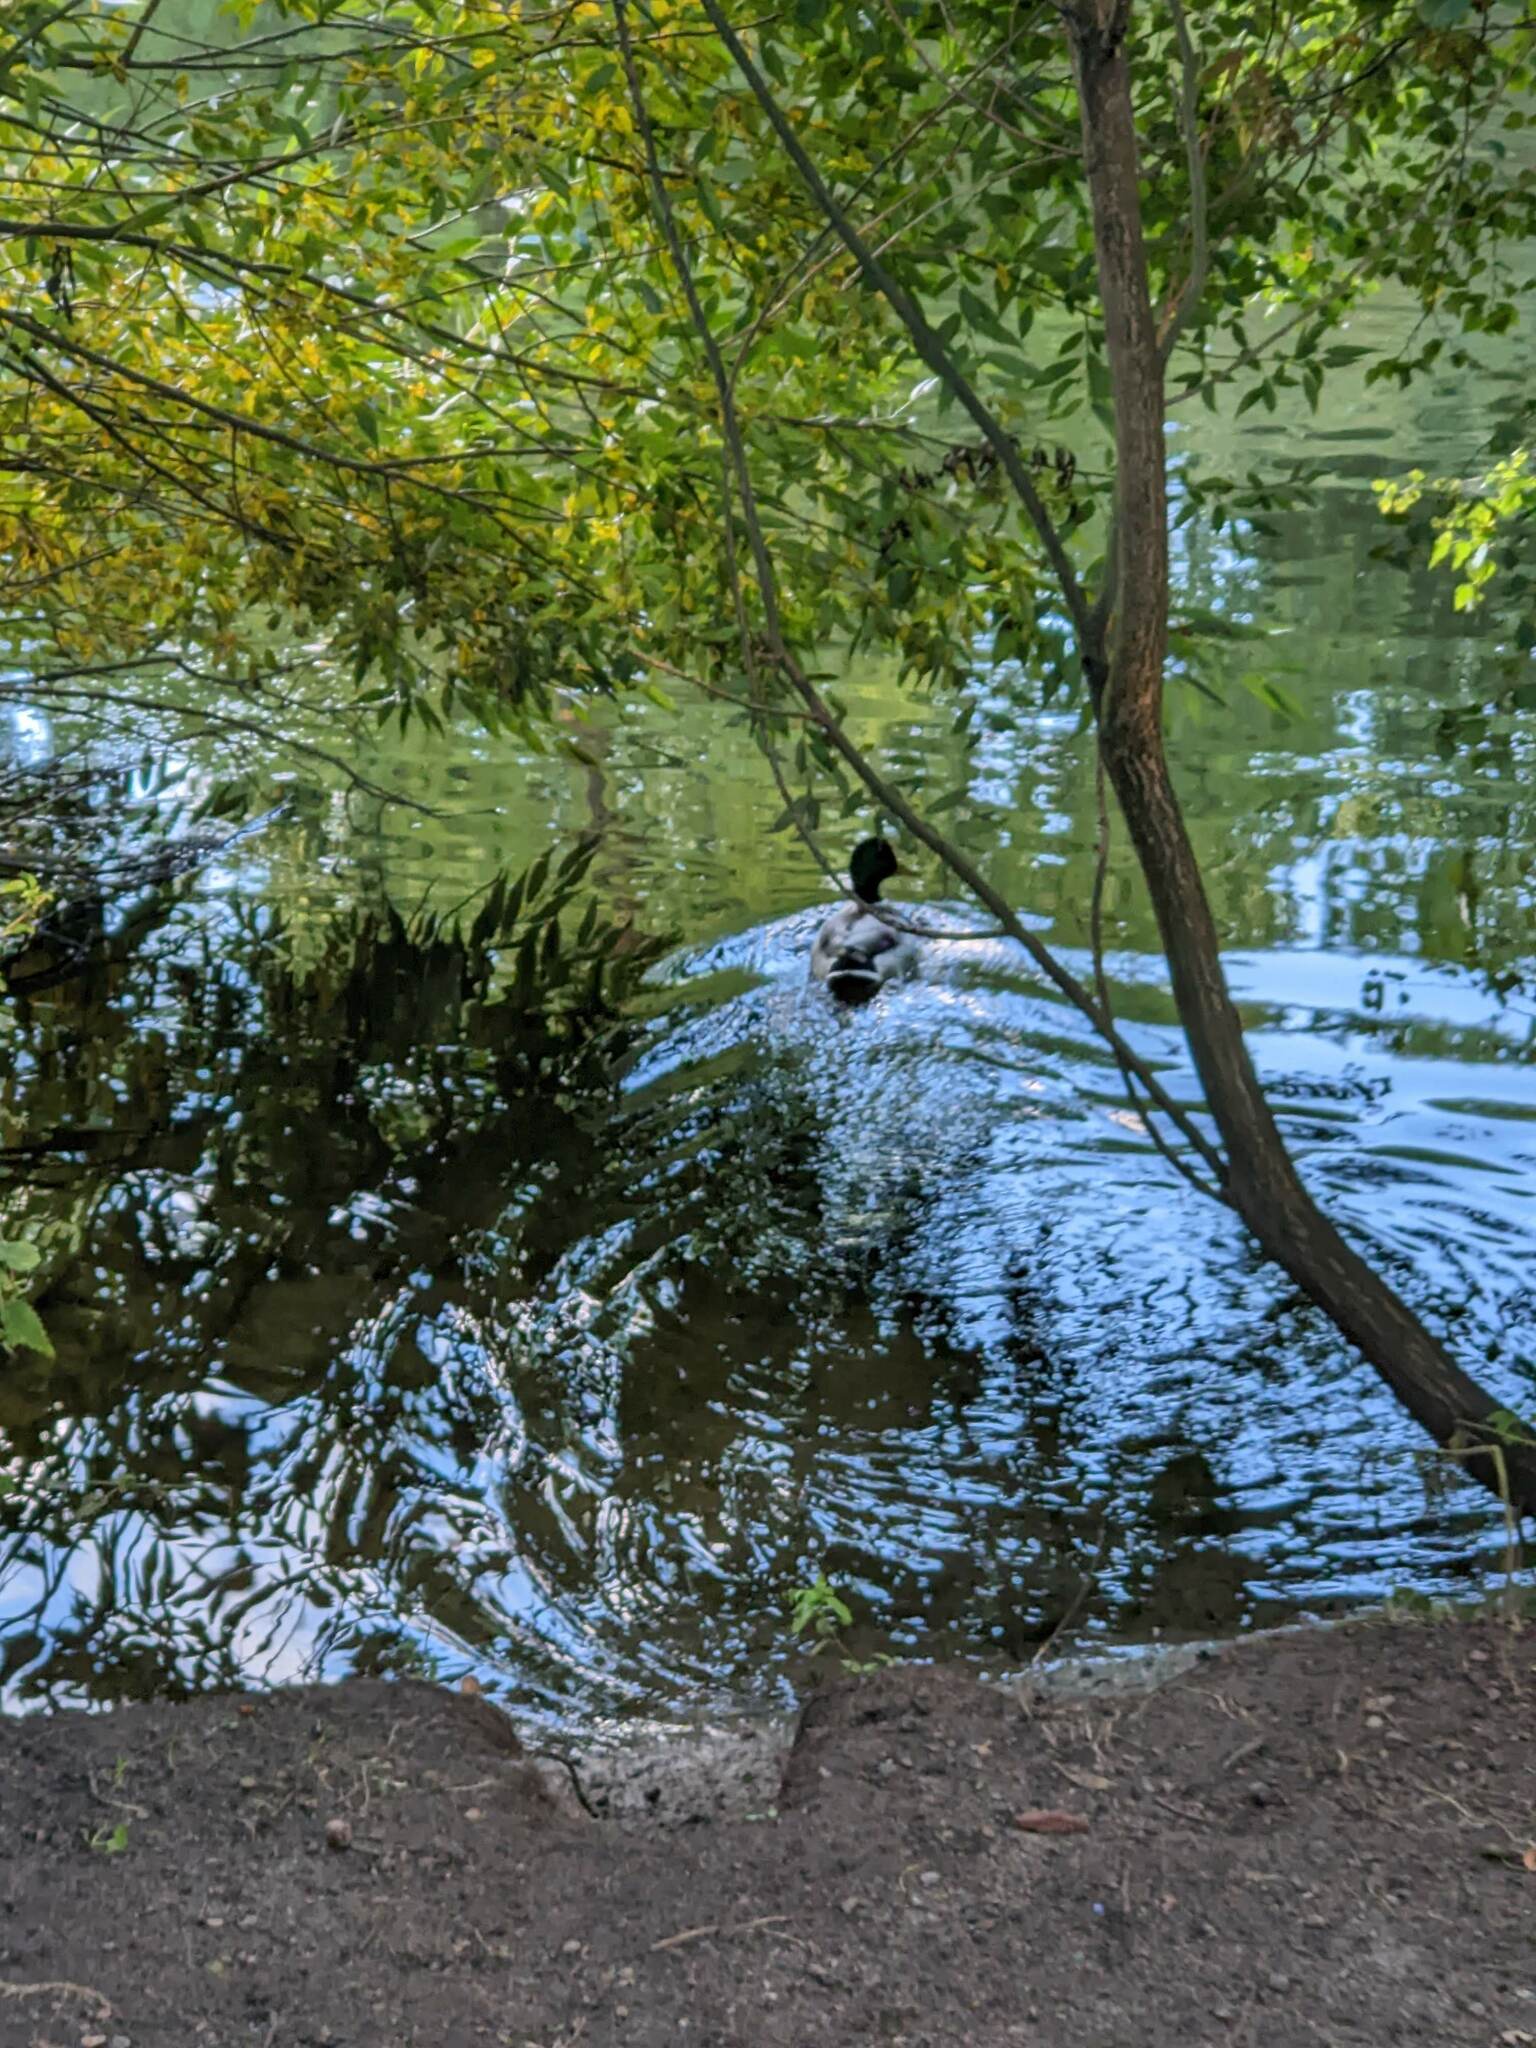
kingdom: Animalia
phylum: Chordata
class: Aves
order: Anseriformes
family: Anatidae
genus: Anas
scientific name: Anas platyrhynchos
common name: Mallard
